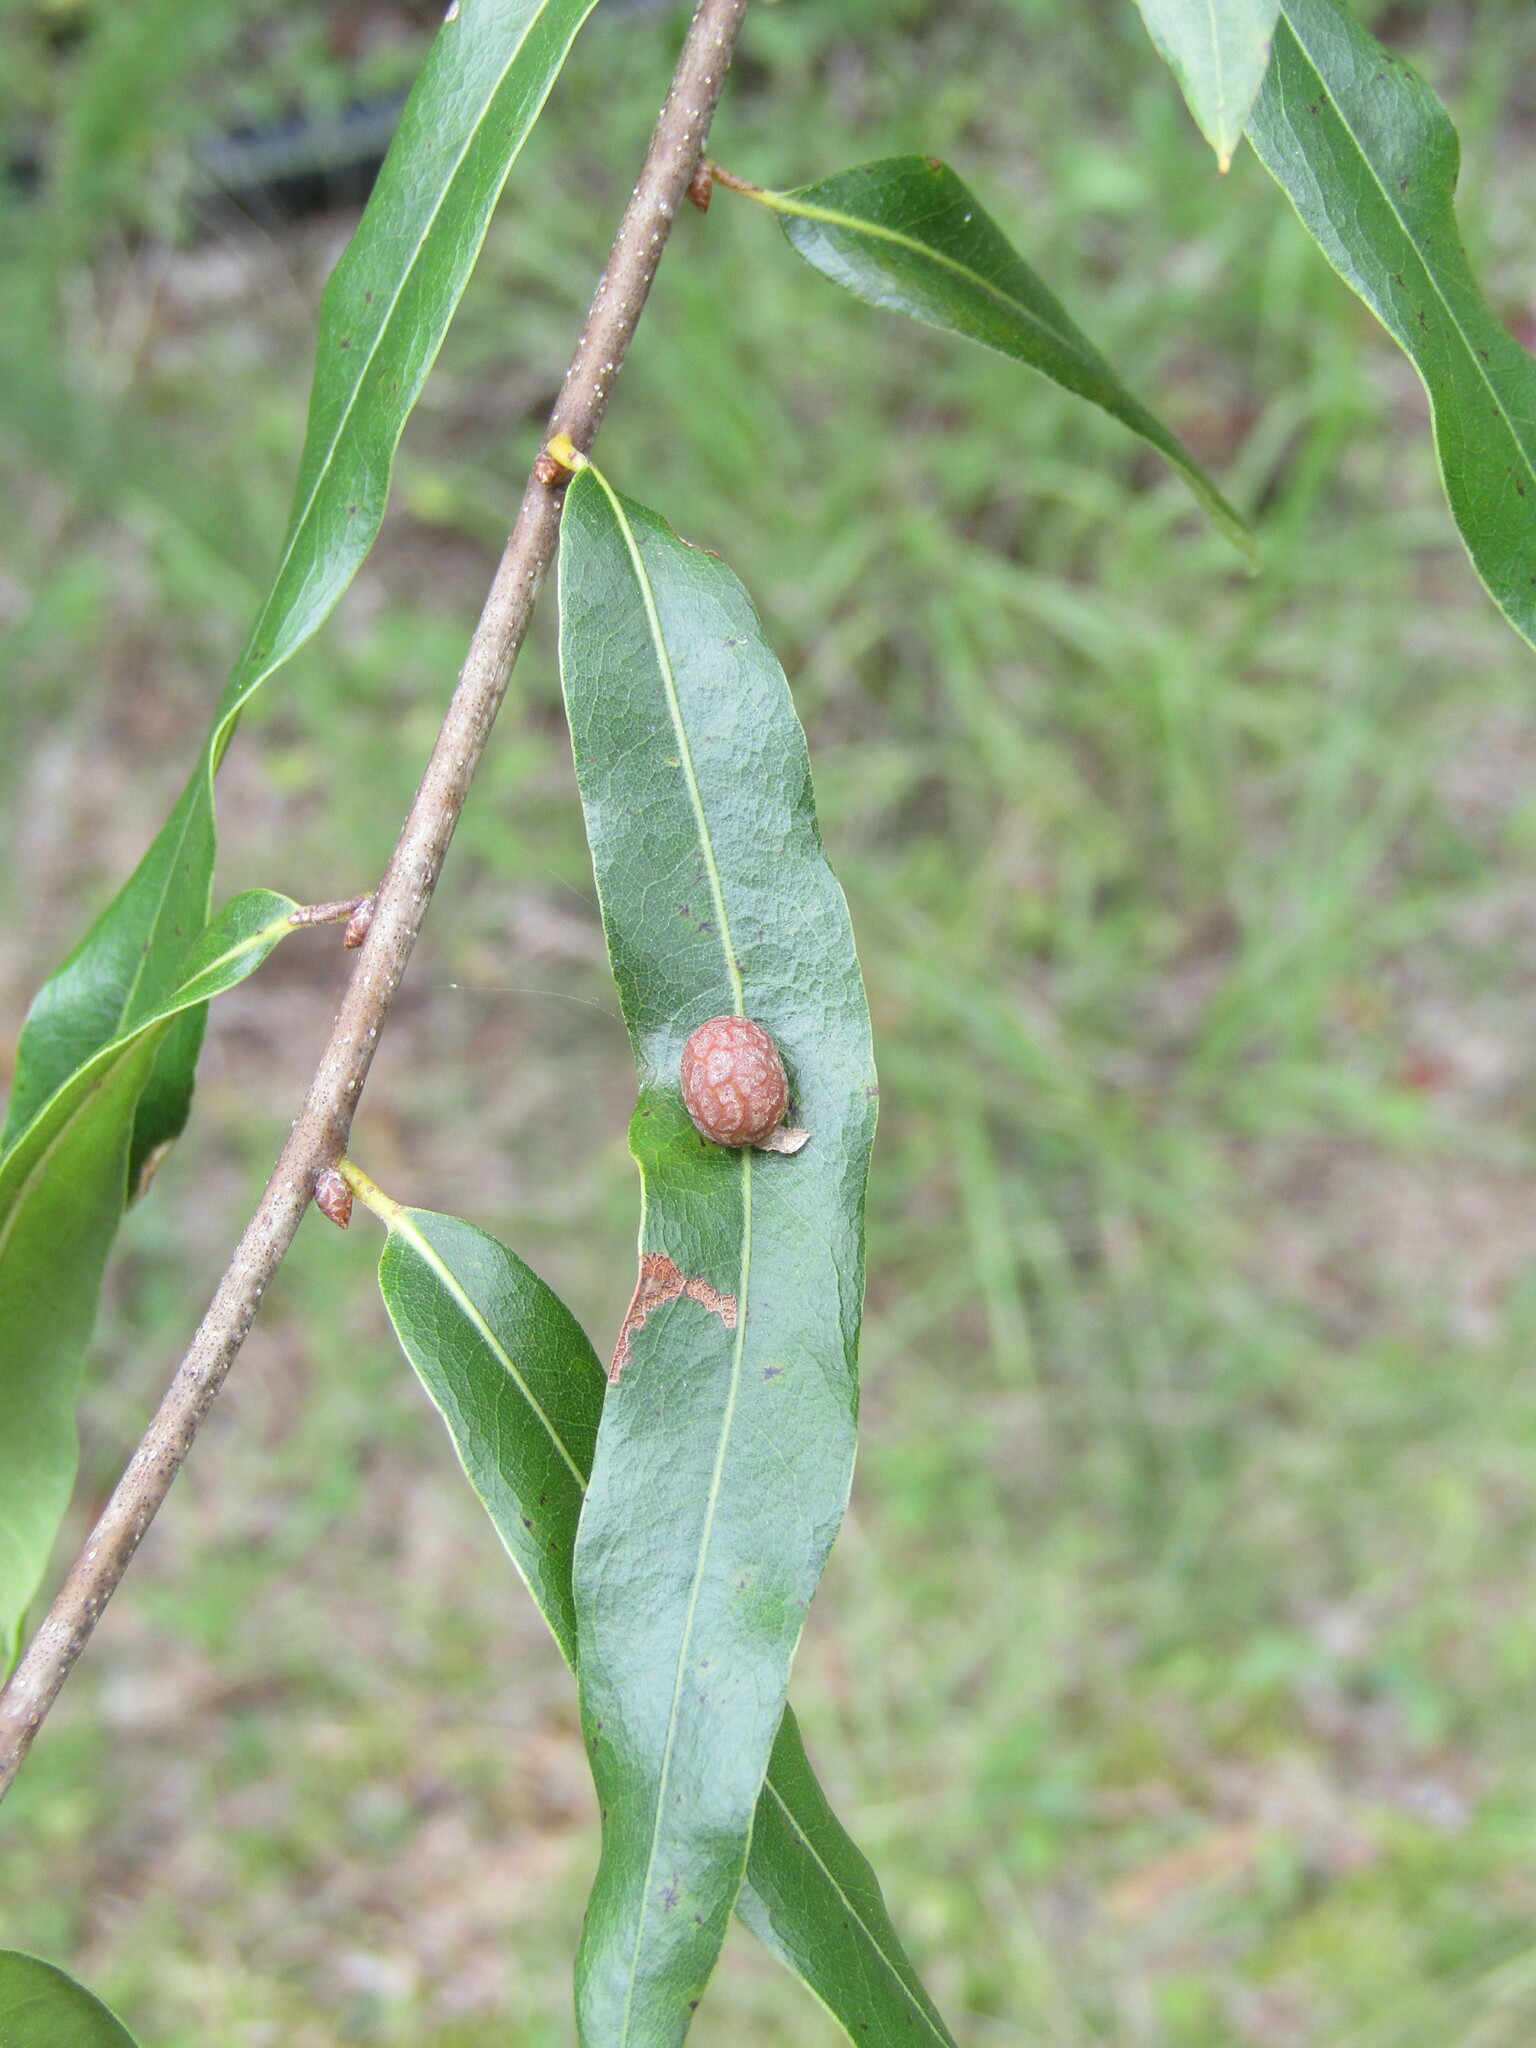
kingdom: Animalia
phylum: Arthropoda
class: Insecta
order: Diptera
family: Cecidomyiidae
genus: Polystepha
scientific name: Polystepha pilulae
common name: Oak leaf gall midge
